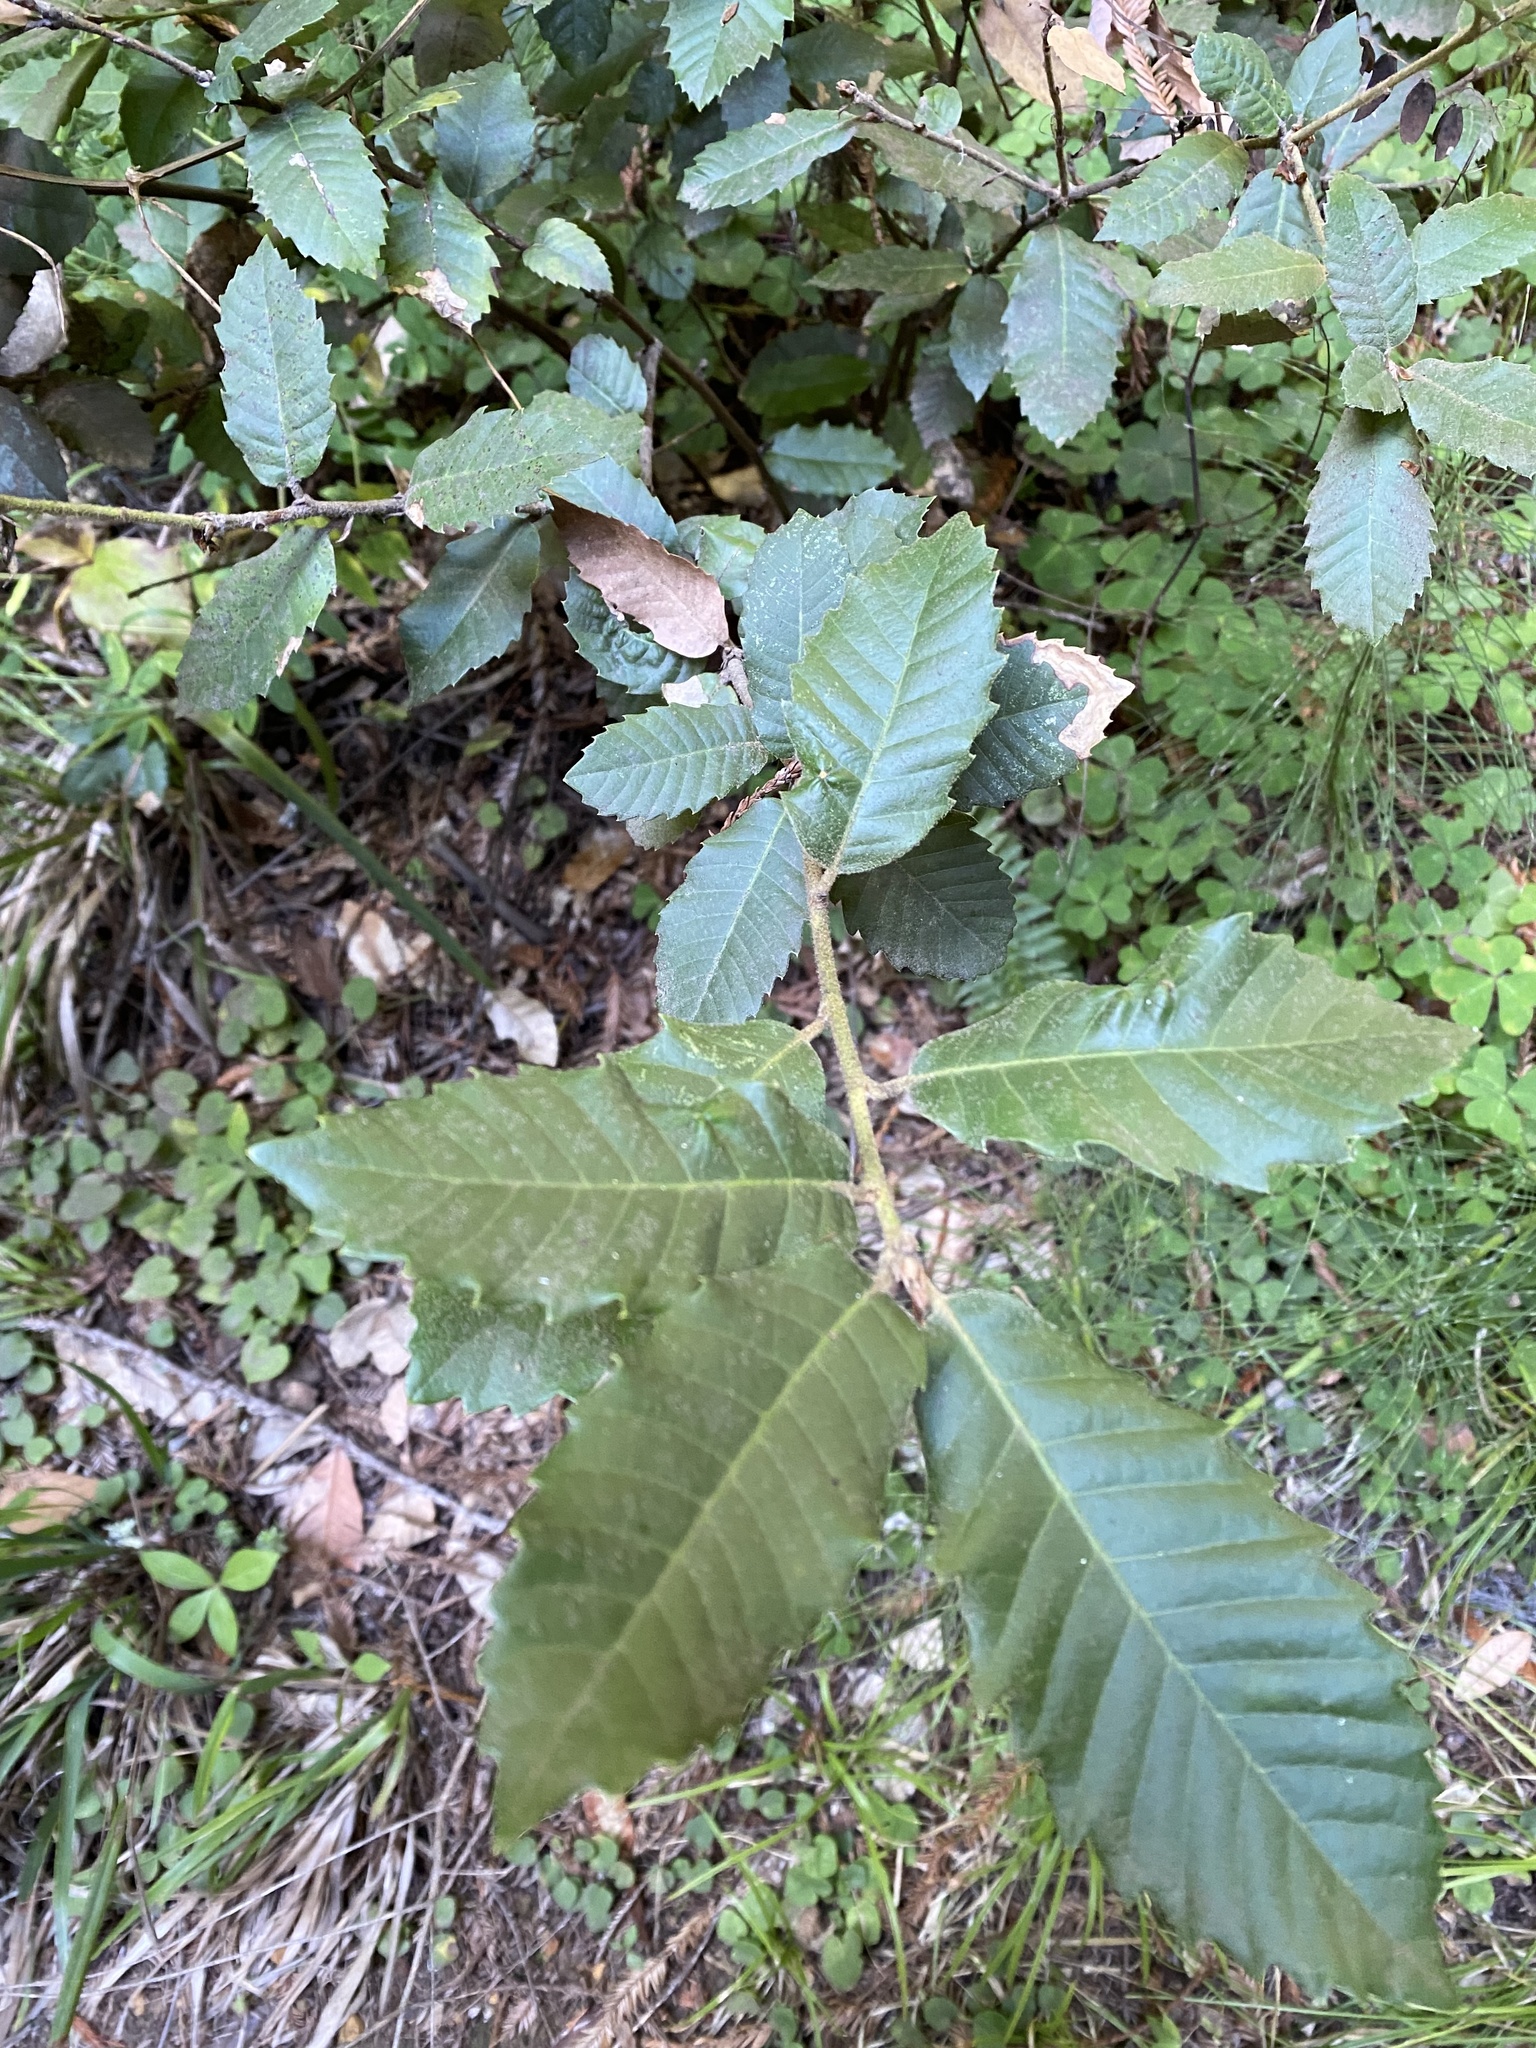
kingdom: Plantae
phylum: Tracheophyta
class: Magnoliopsida
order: Fagales
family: Fagaceae
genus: Notholithocarpus
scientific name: Notholithocarpus densiflorus
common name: Tan bark oak
